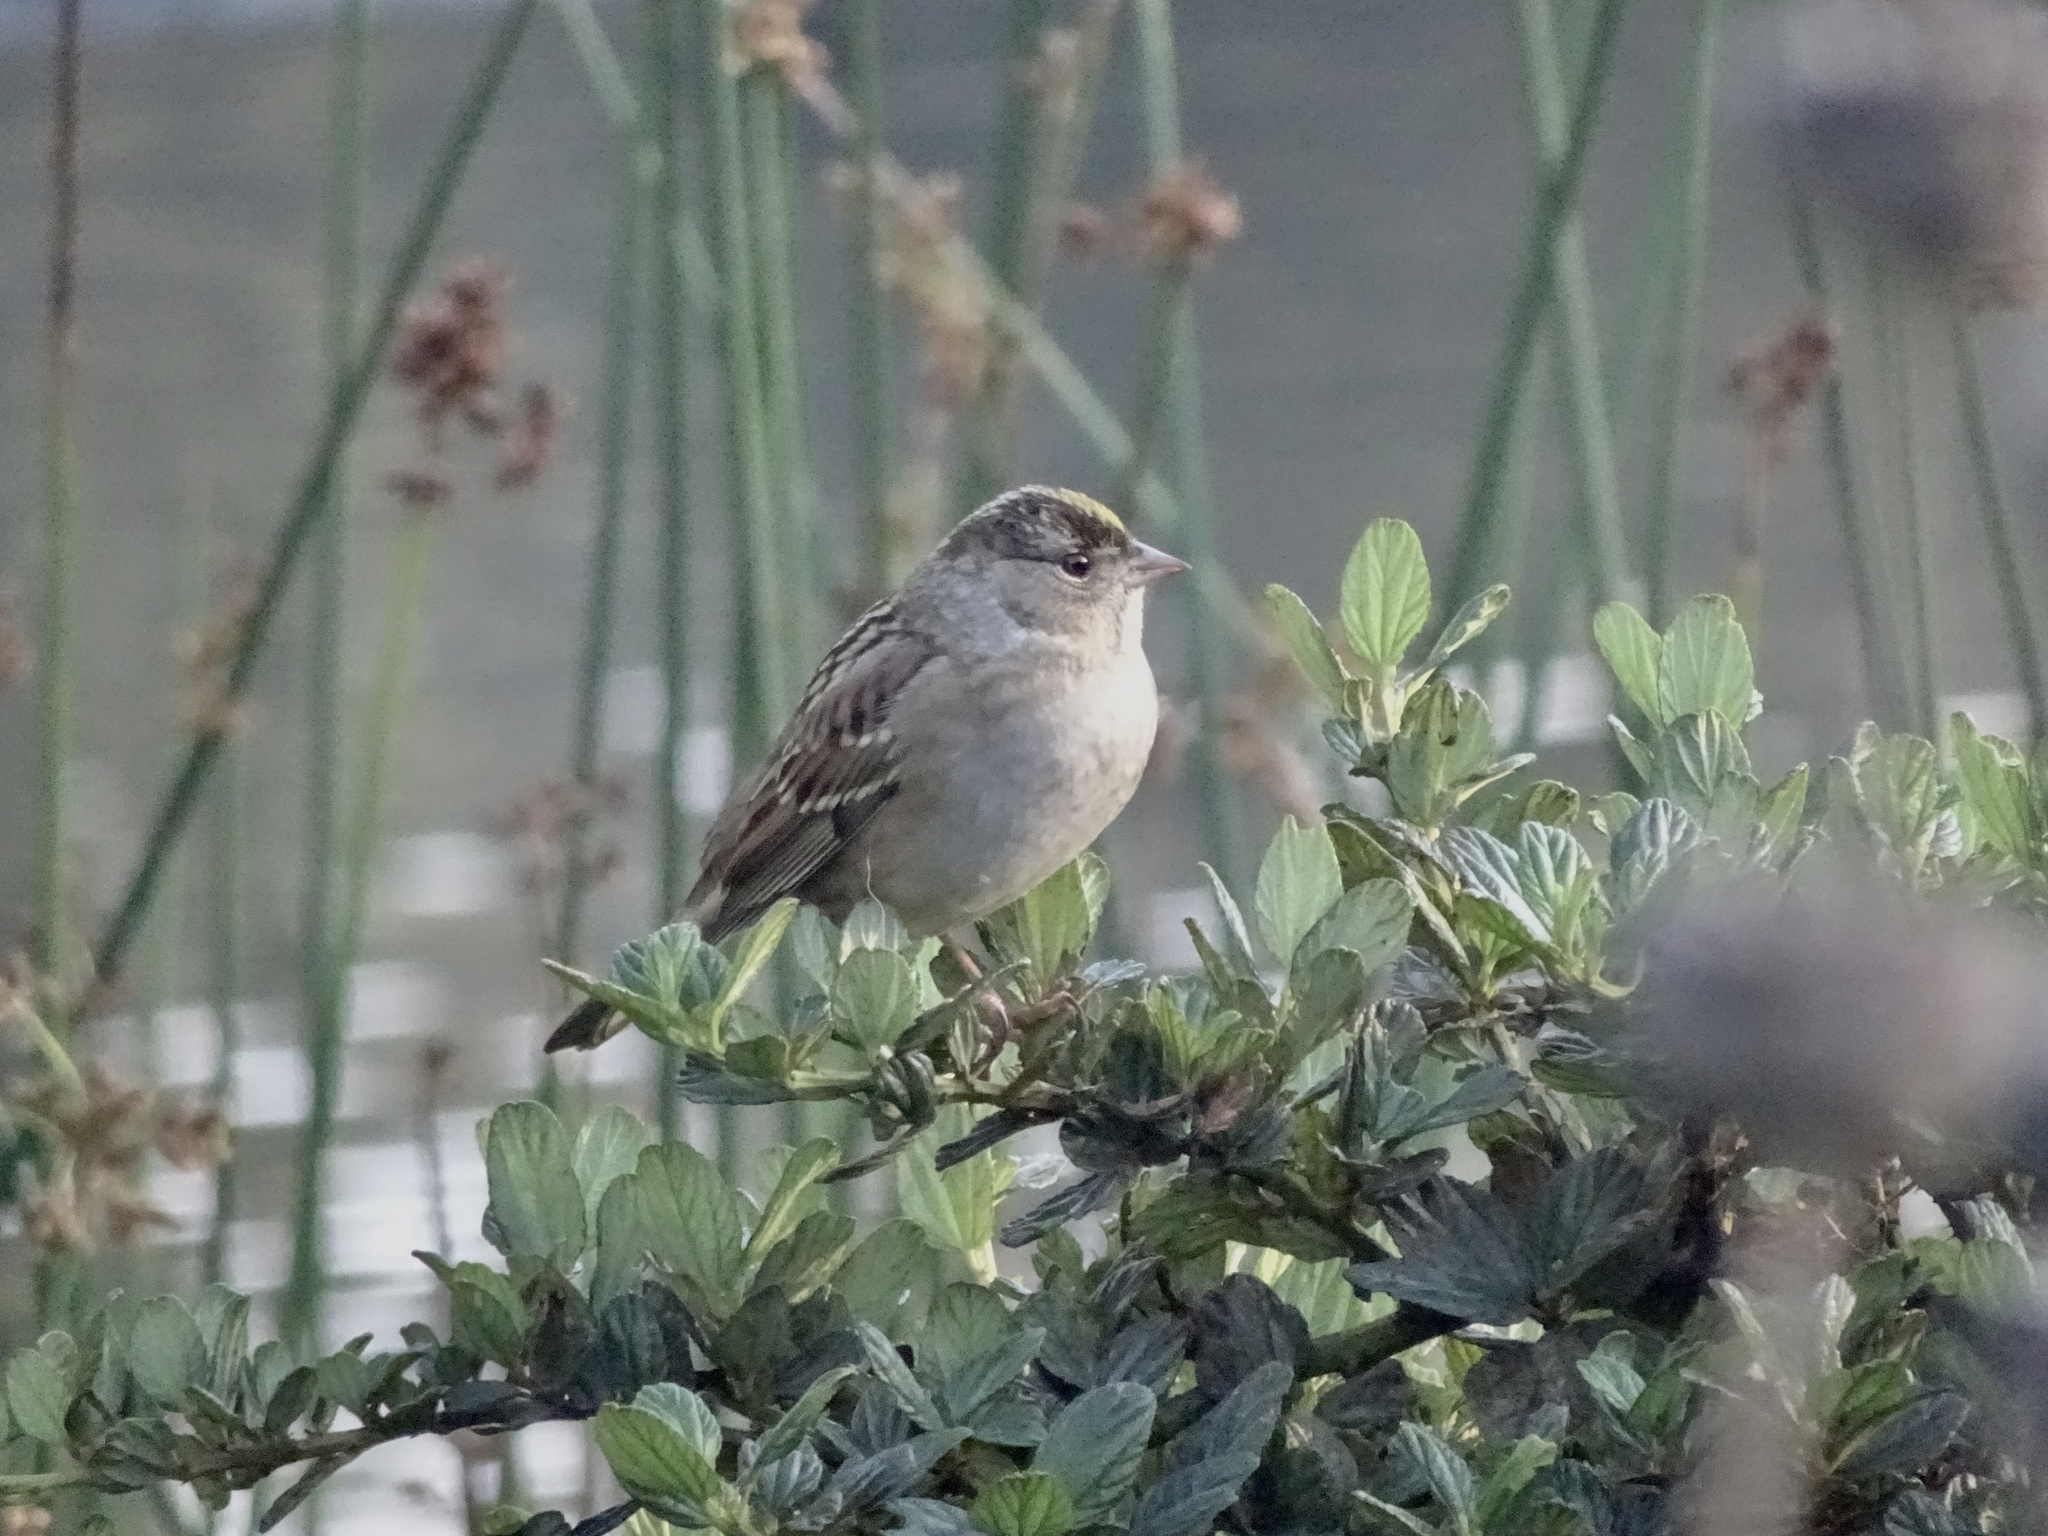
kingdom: Animalia
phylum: Chordata
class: Aves
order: Passeriformes
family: Passerellidae
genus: Zonotrichia
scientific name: Zonotrichia atricapilla
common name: Golden-crowned sparrow
